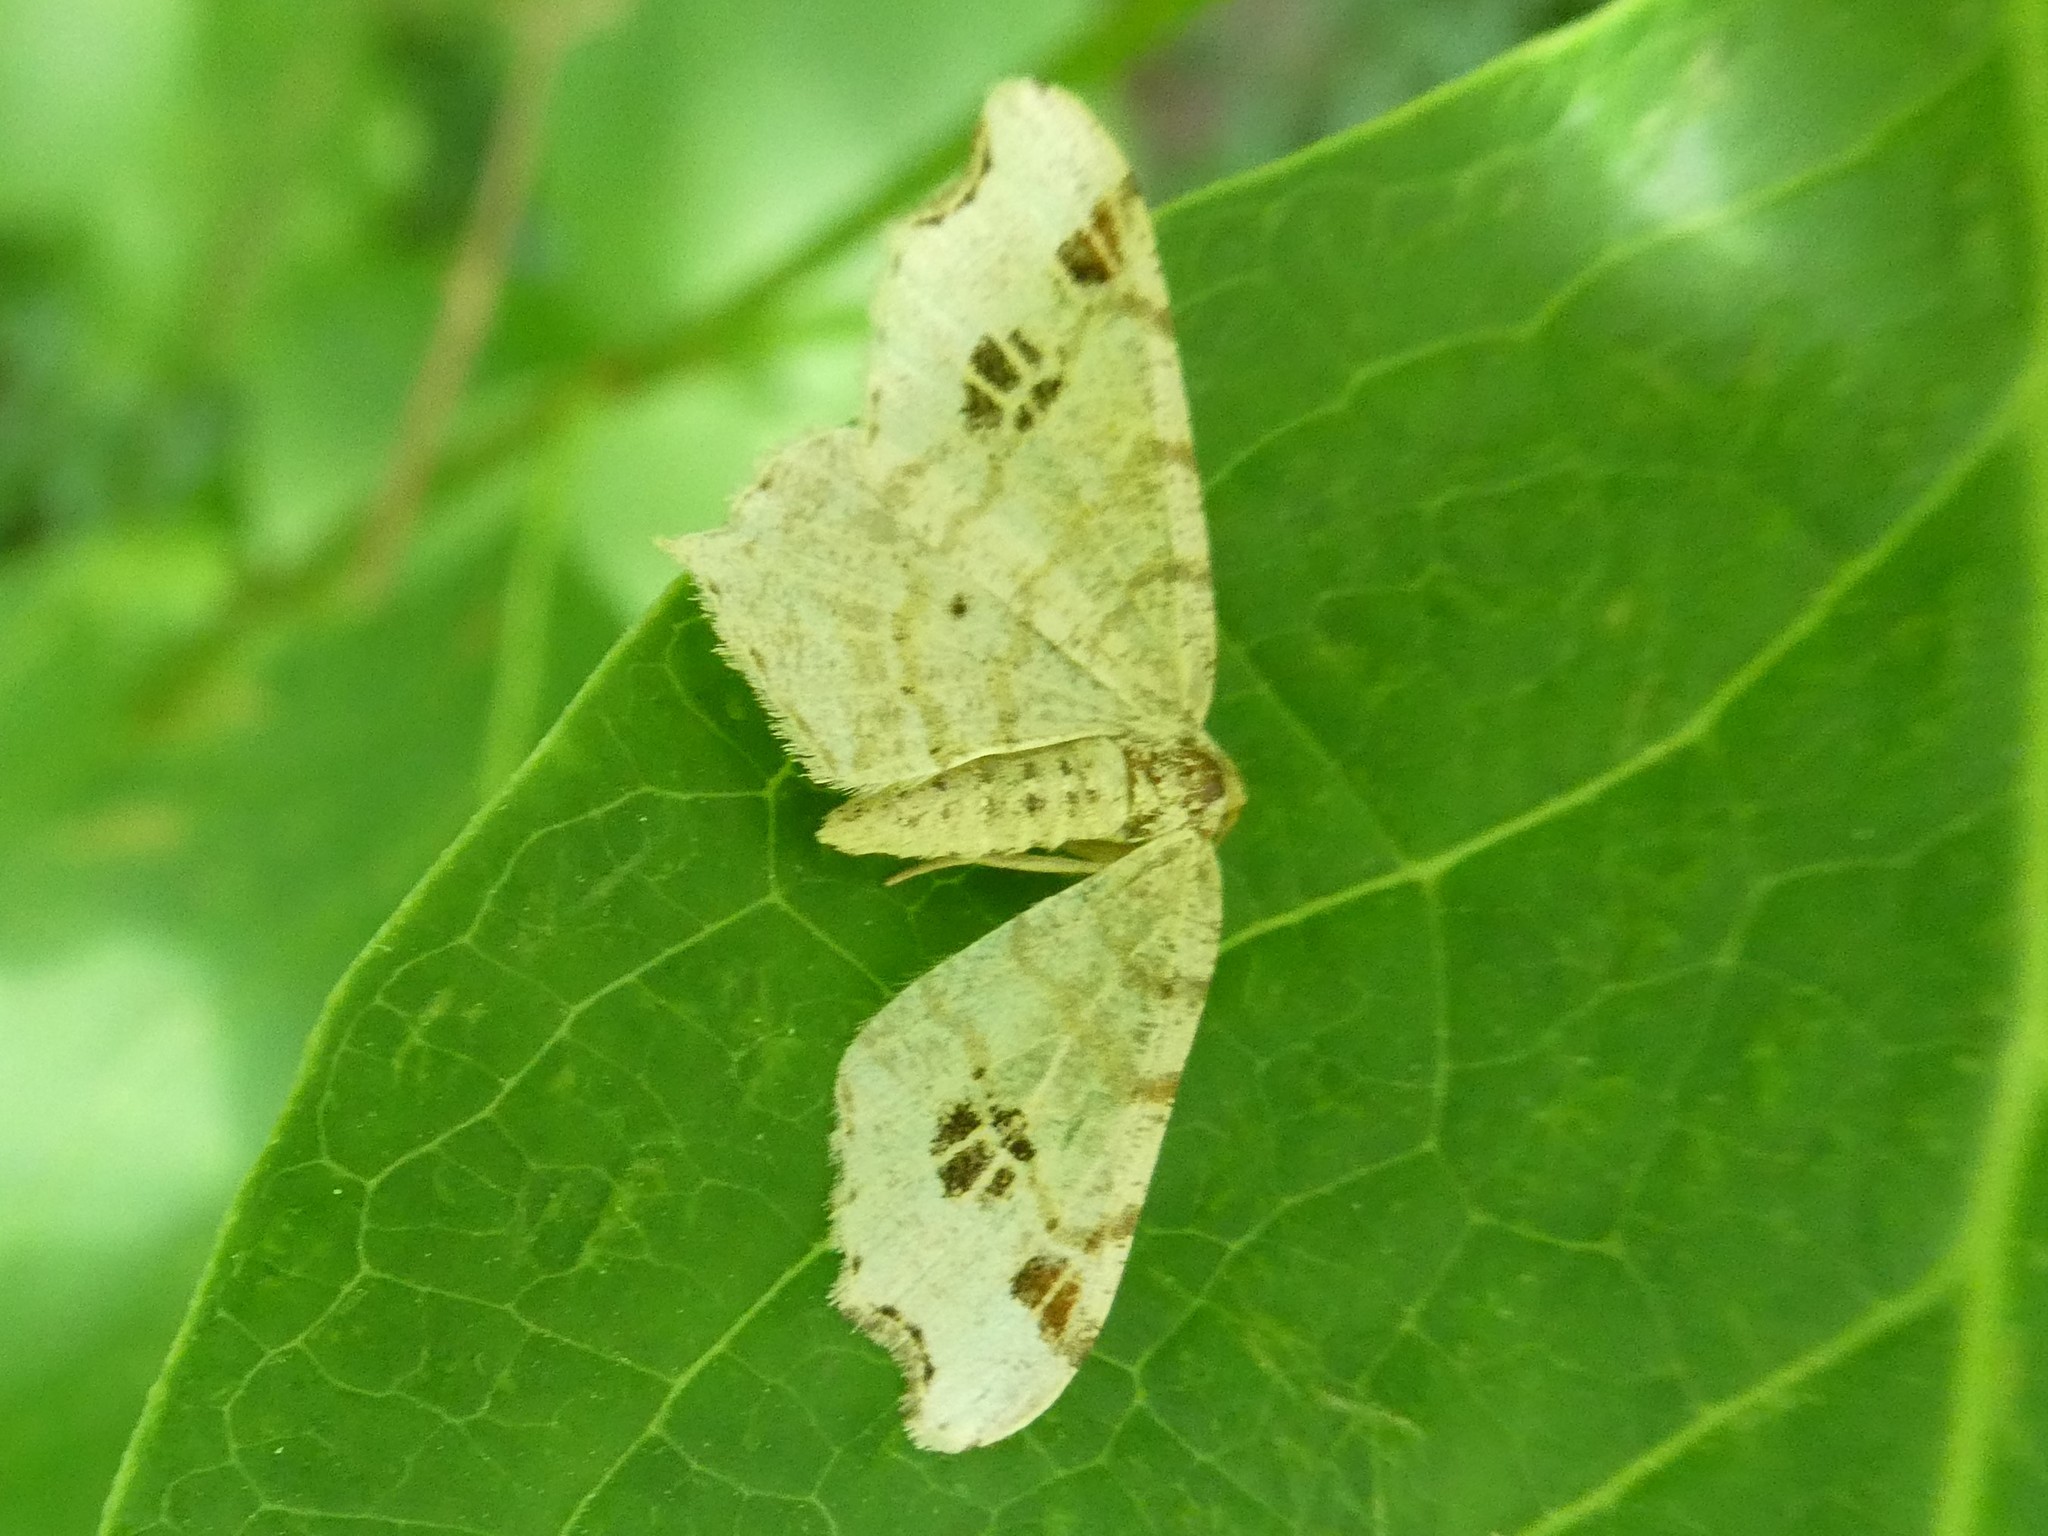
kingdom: Animalia
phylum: Arthropoda
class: Insecta
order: Lepidoptera
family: Geometridae
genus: Macaria
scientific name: Macaria aemulataria
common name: Common angle
